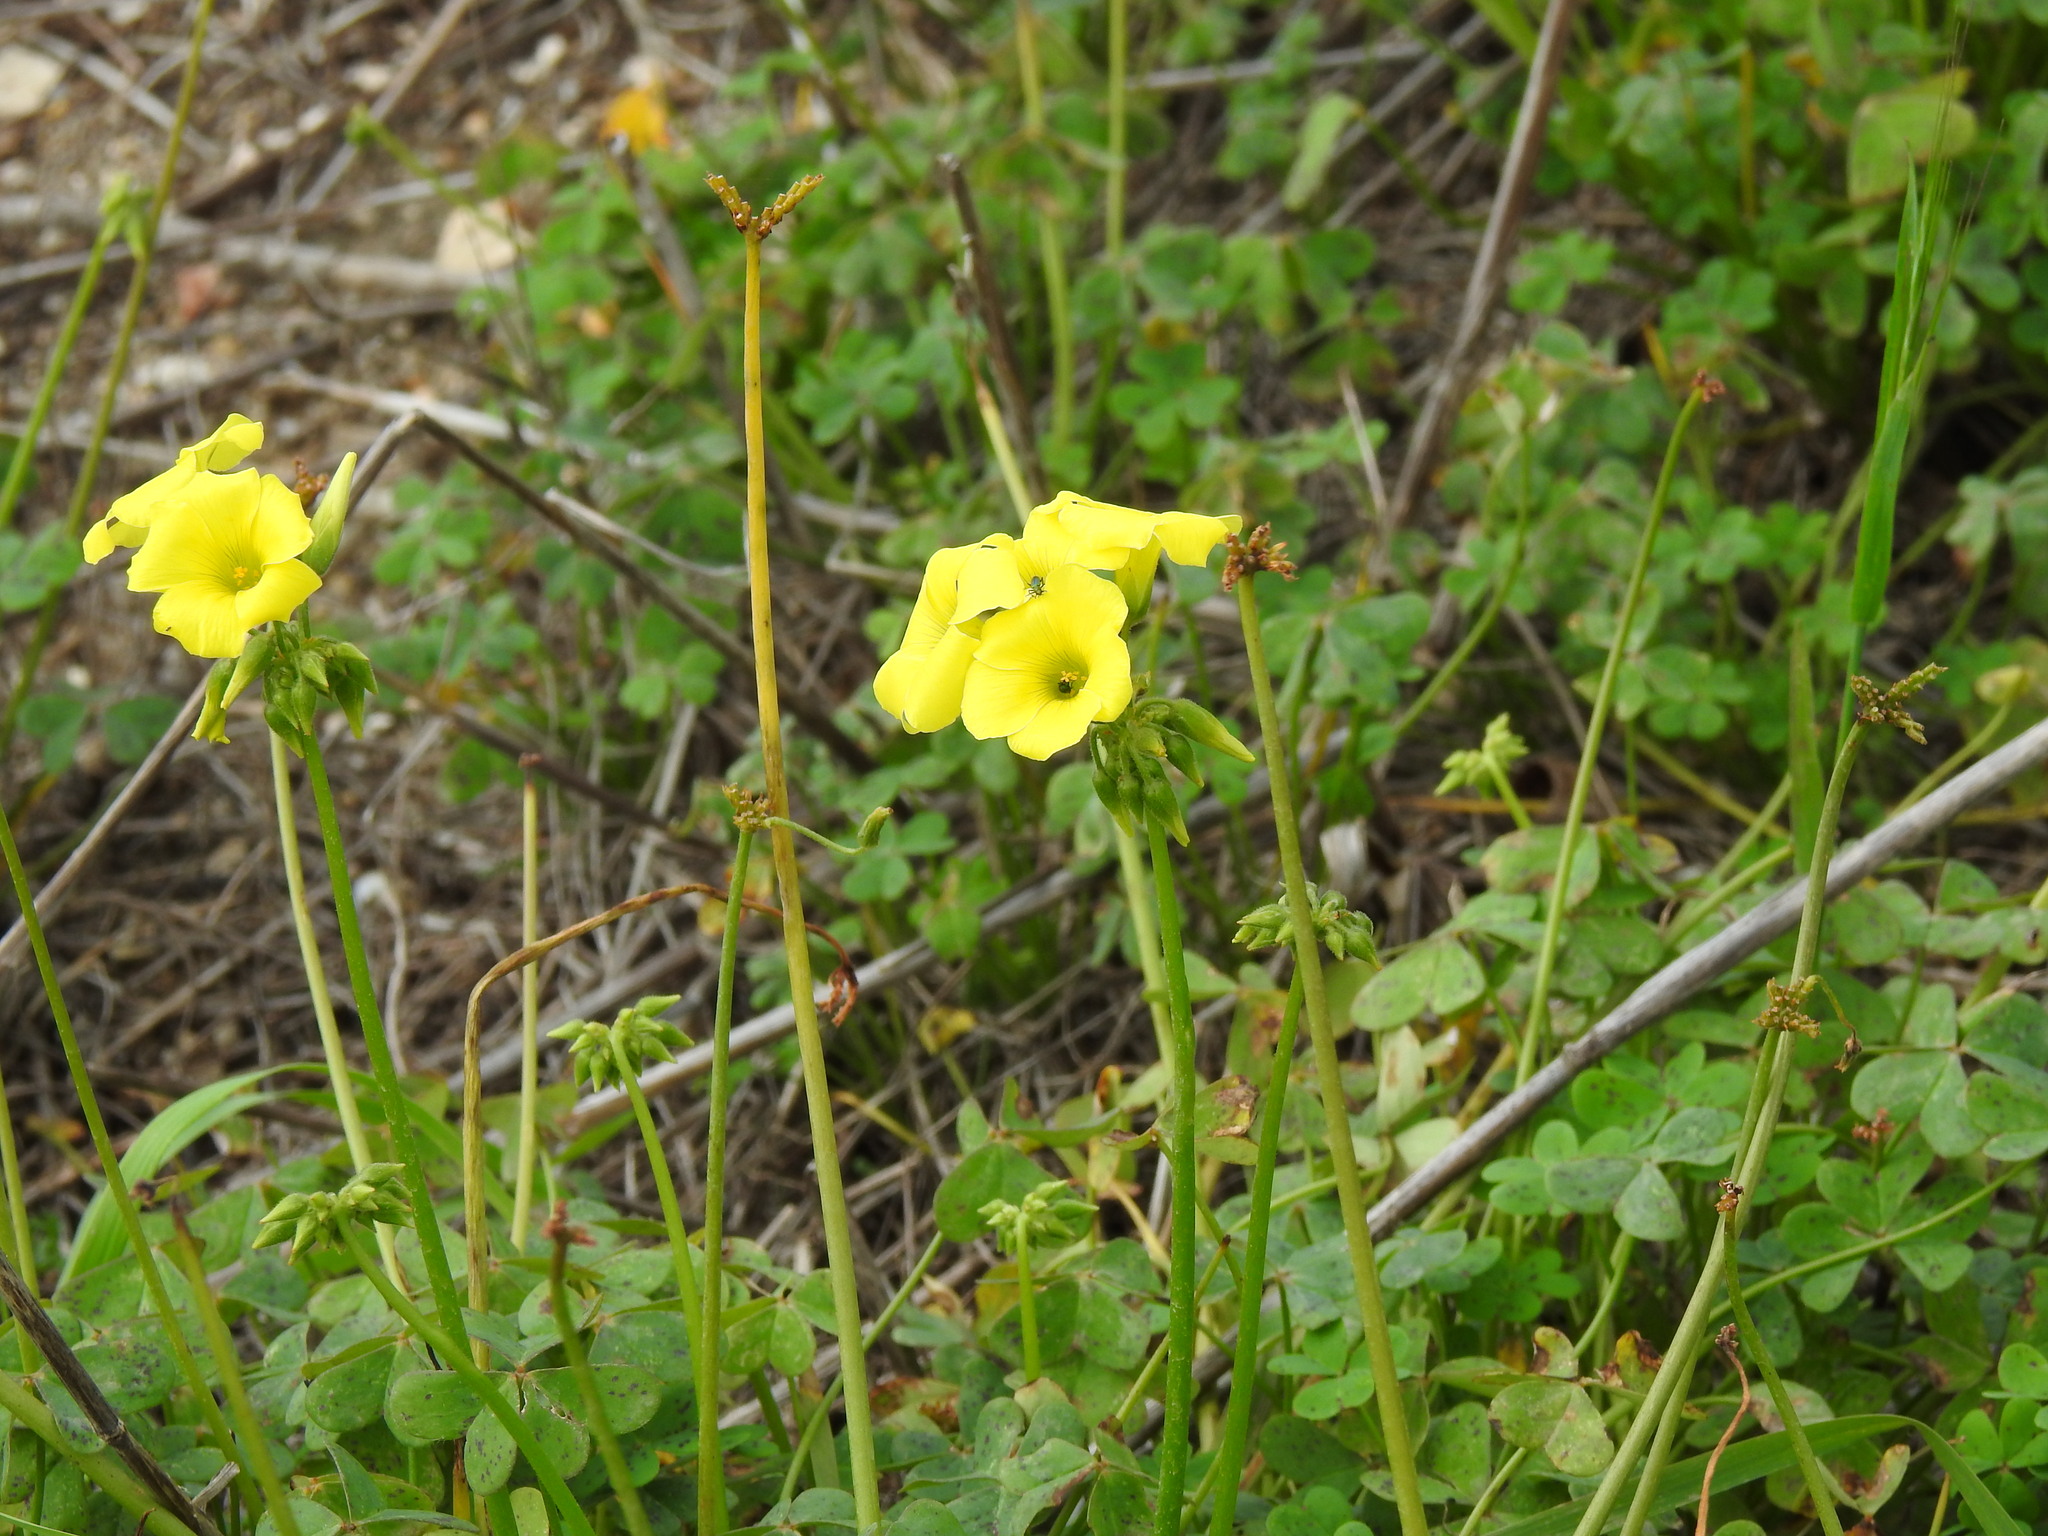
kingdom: Plantae
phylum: Tracheophyta
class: Magnoliopsida
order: Oxalidales
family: Oxalidaceae
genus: Oxalis
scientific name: Oxalis pes-caprae
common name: Bermuda-buttercup
